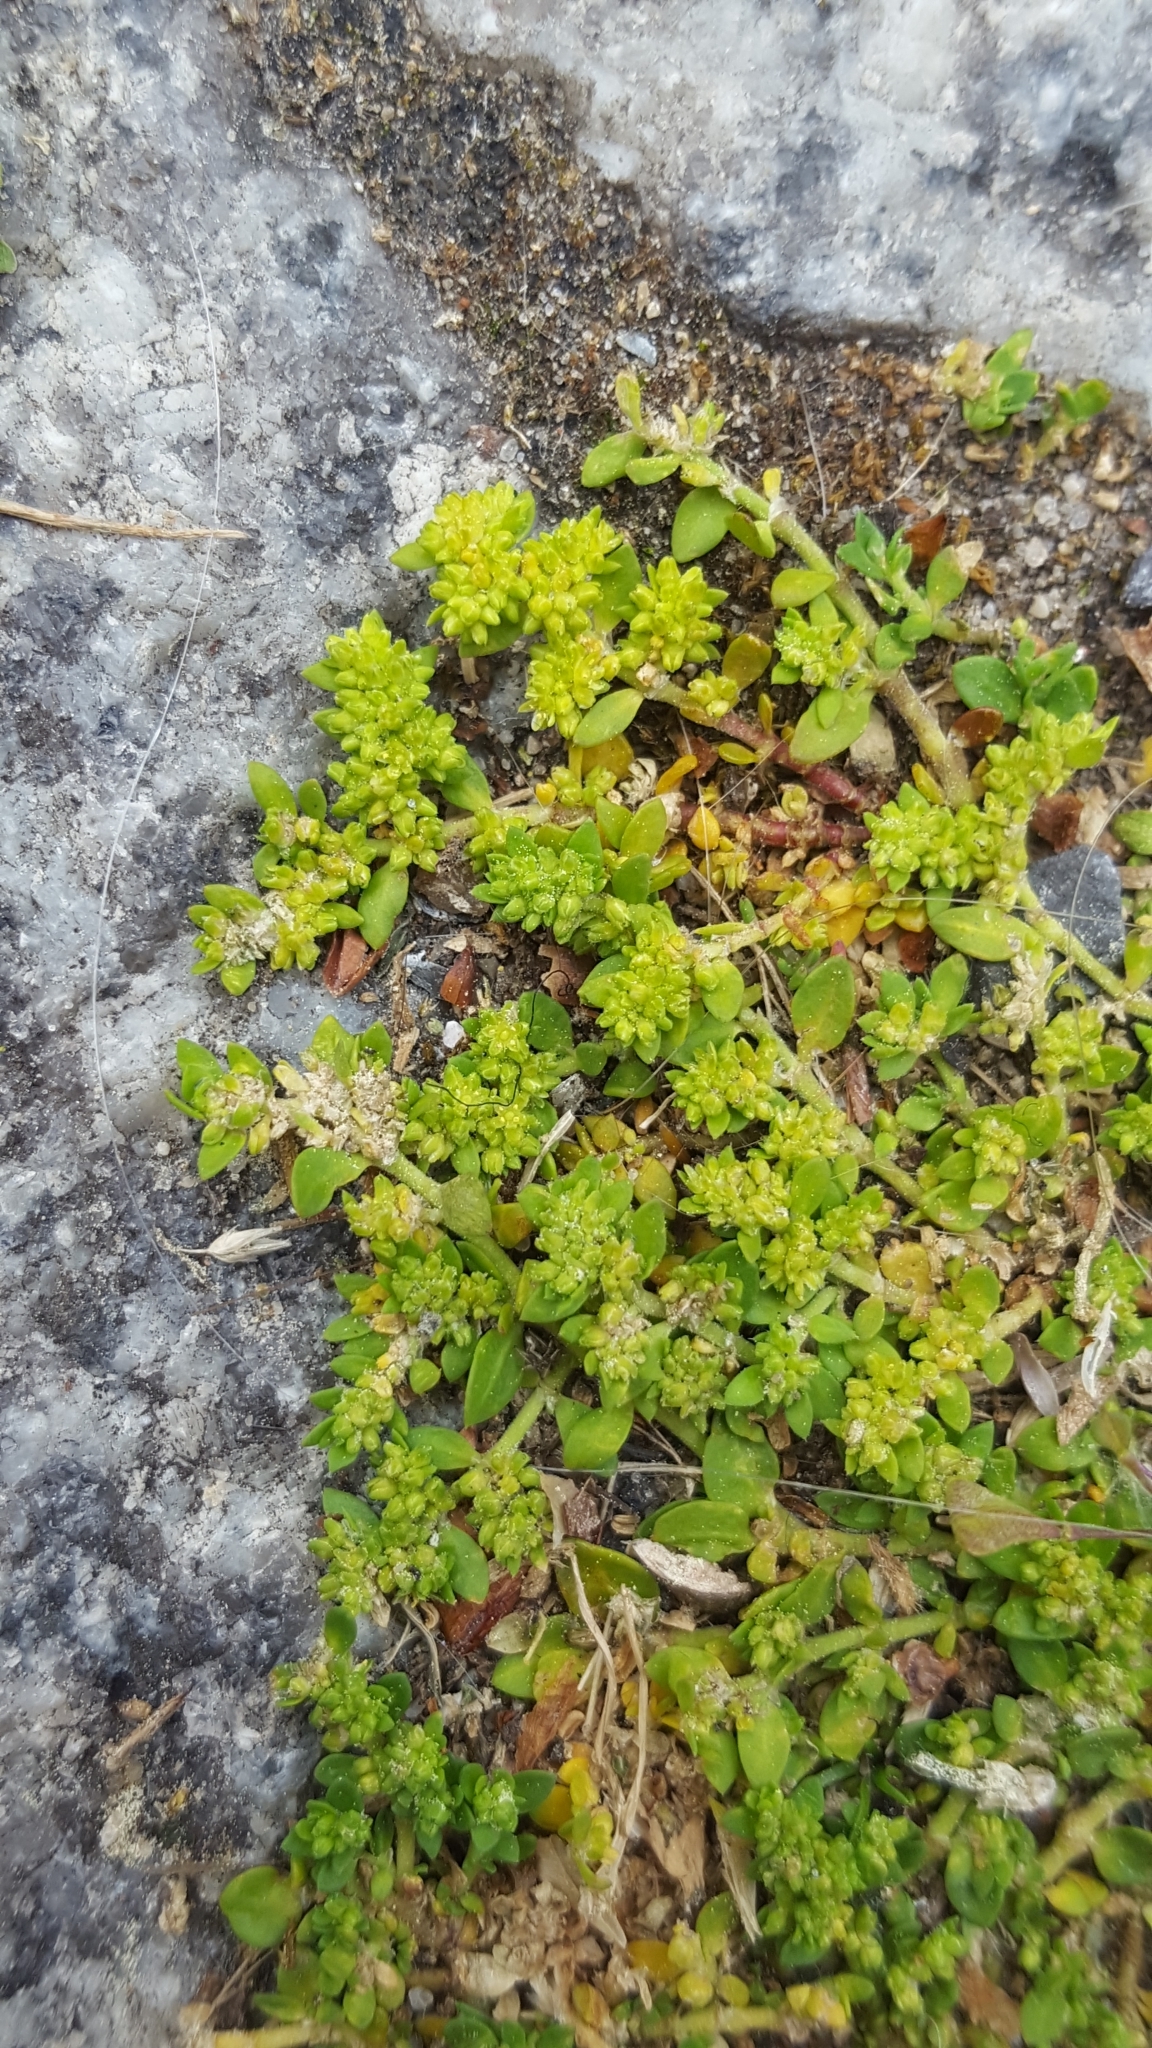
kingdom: Plantae
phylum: Tracheophyta
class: Magnoliopsida
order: Caryophyllales
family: Caryophyllaceae
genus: Herniaria
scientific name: Herniaria glabra
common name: Smooth rupturewort
